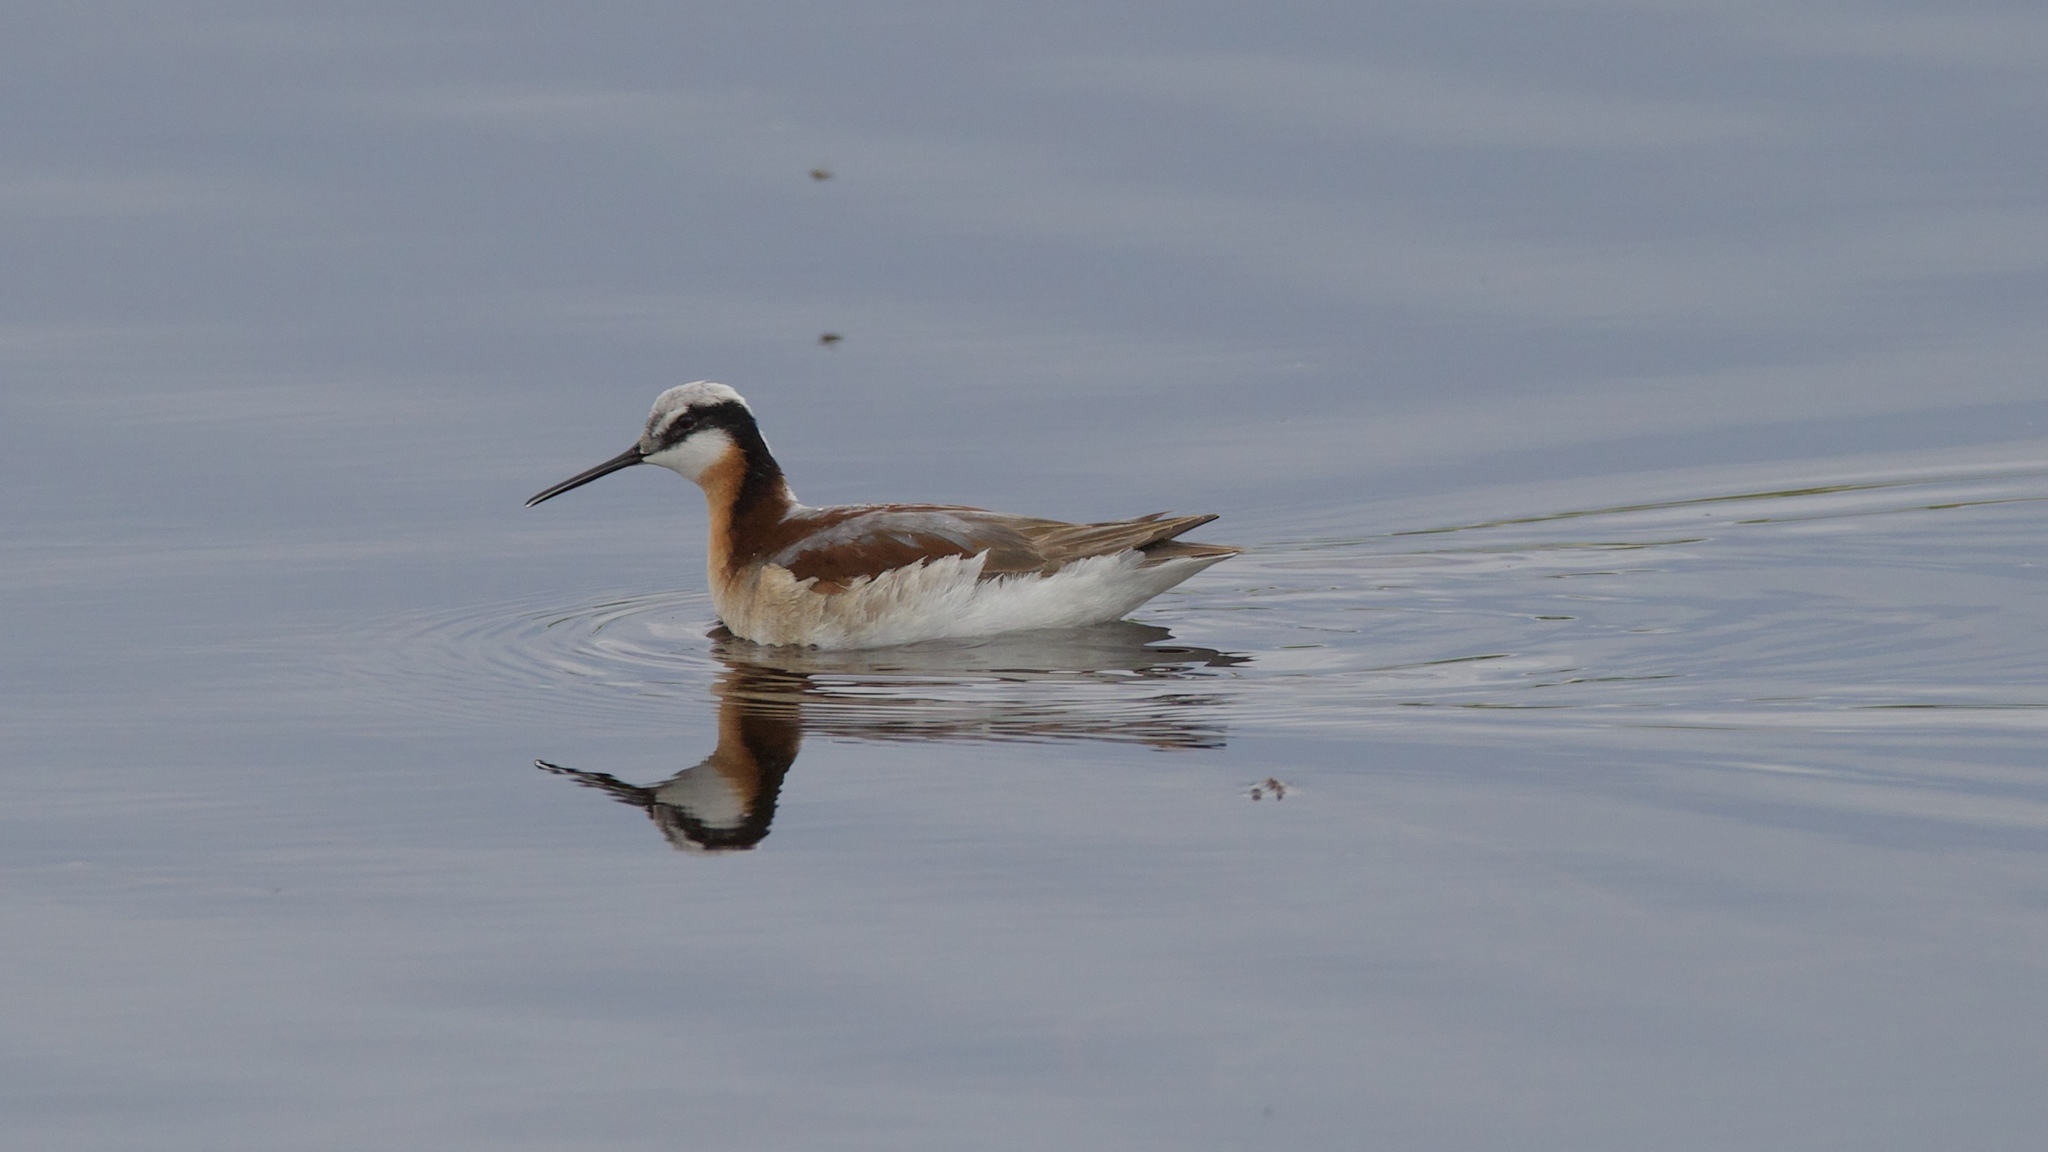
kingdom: Animalia
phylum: Chordata
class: Aves
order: Charadriiformes
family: Scolopacidae
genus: Phalaropus
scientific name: Phalaropus tricolor
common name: Wilson's phalarope
